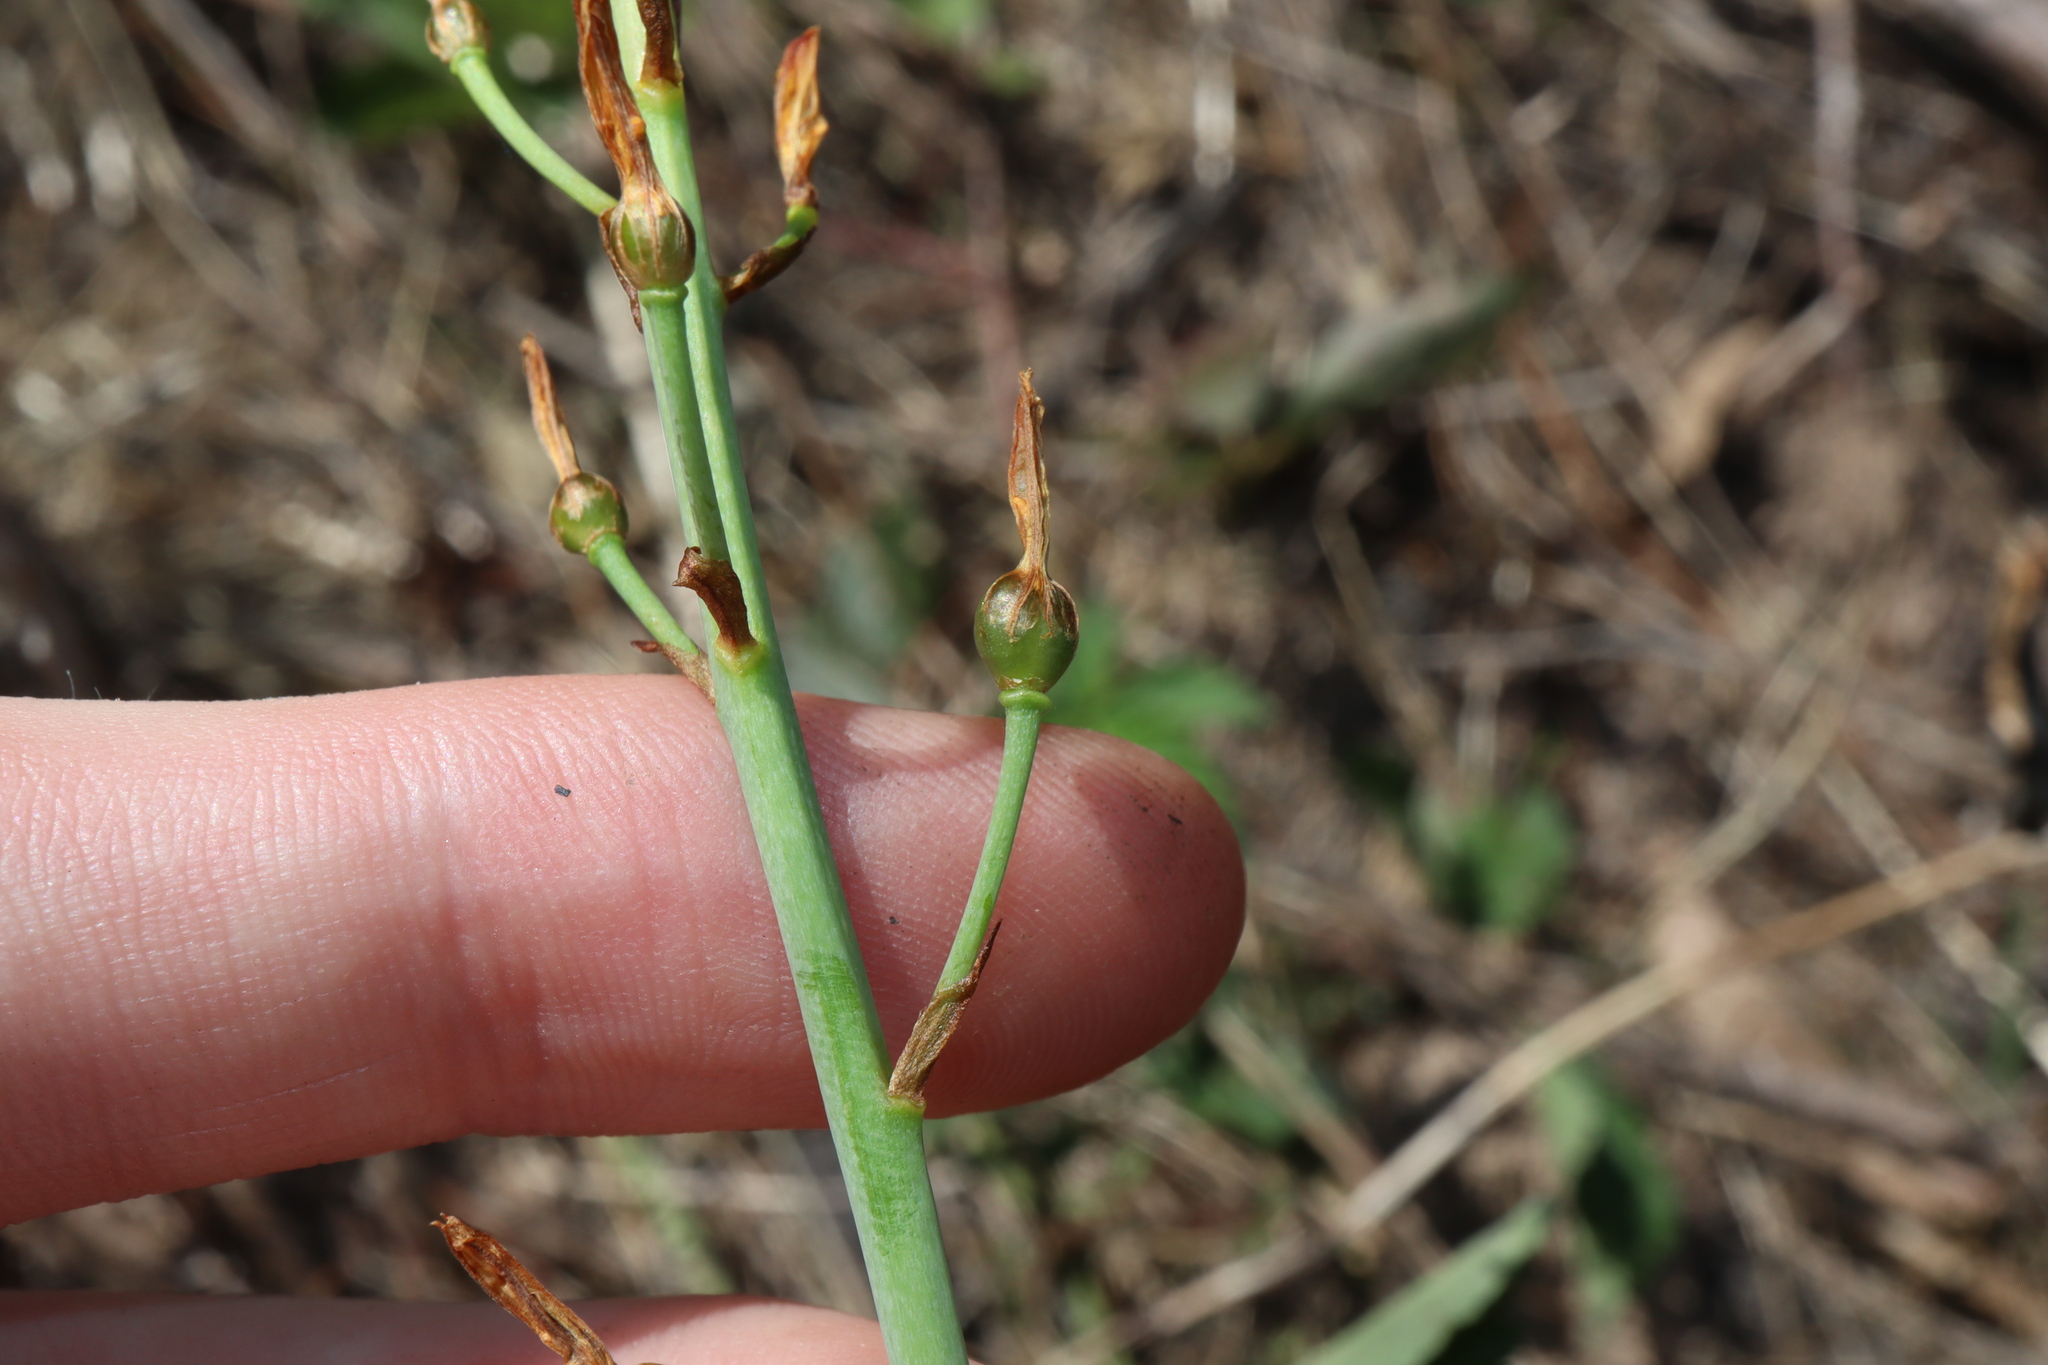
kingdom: Plantae
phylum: Tracheophyta
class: Liliopsida
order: Asparagales
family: Asphodelaceae
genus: Bulbine
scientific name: Bulbine bulbosa
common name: Golden-lily
